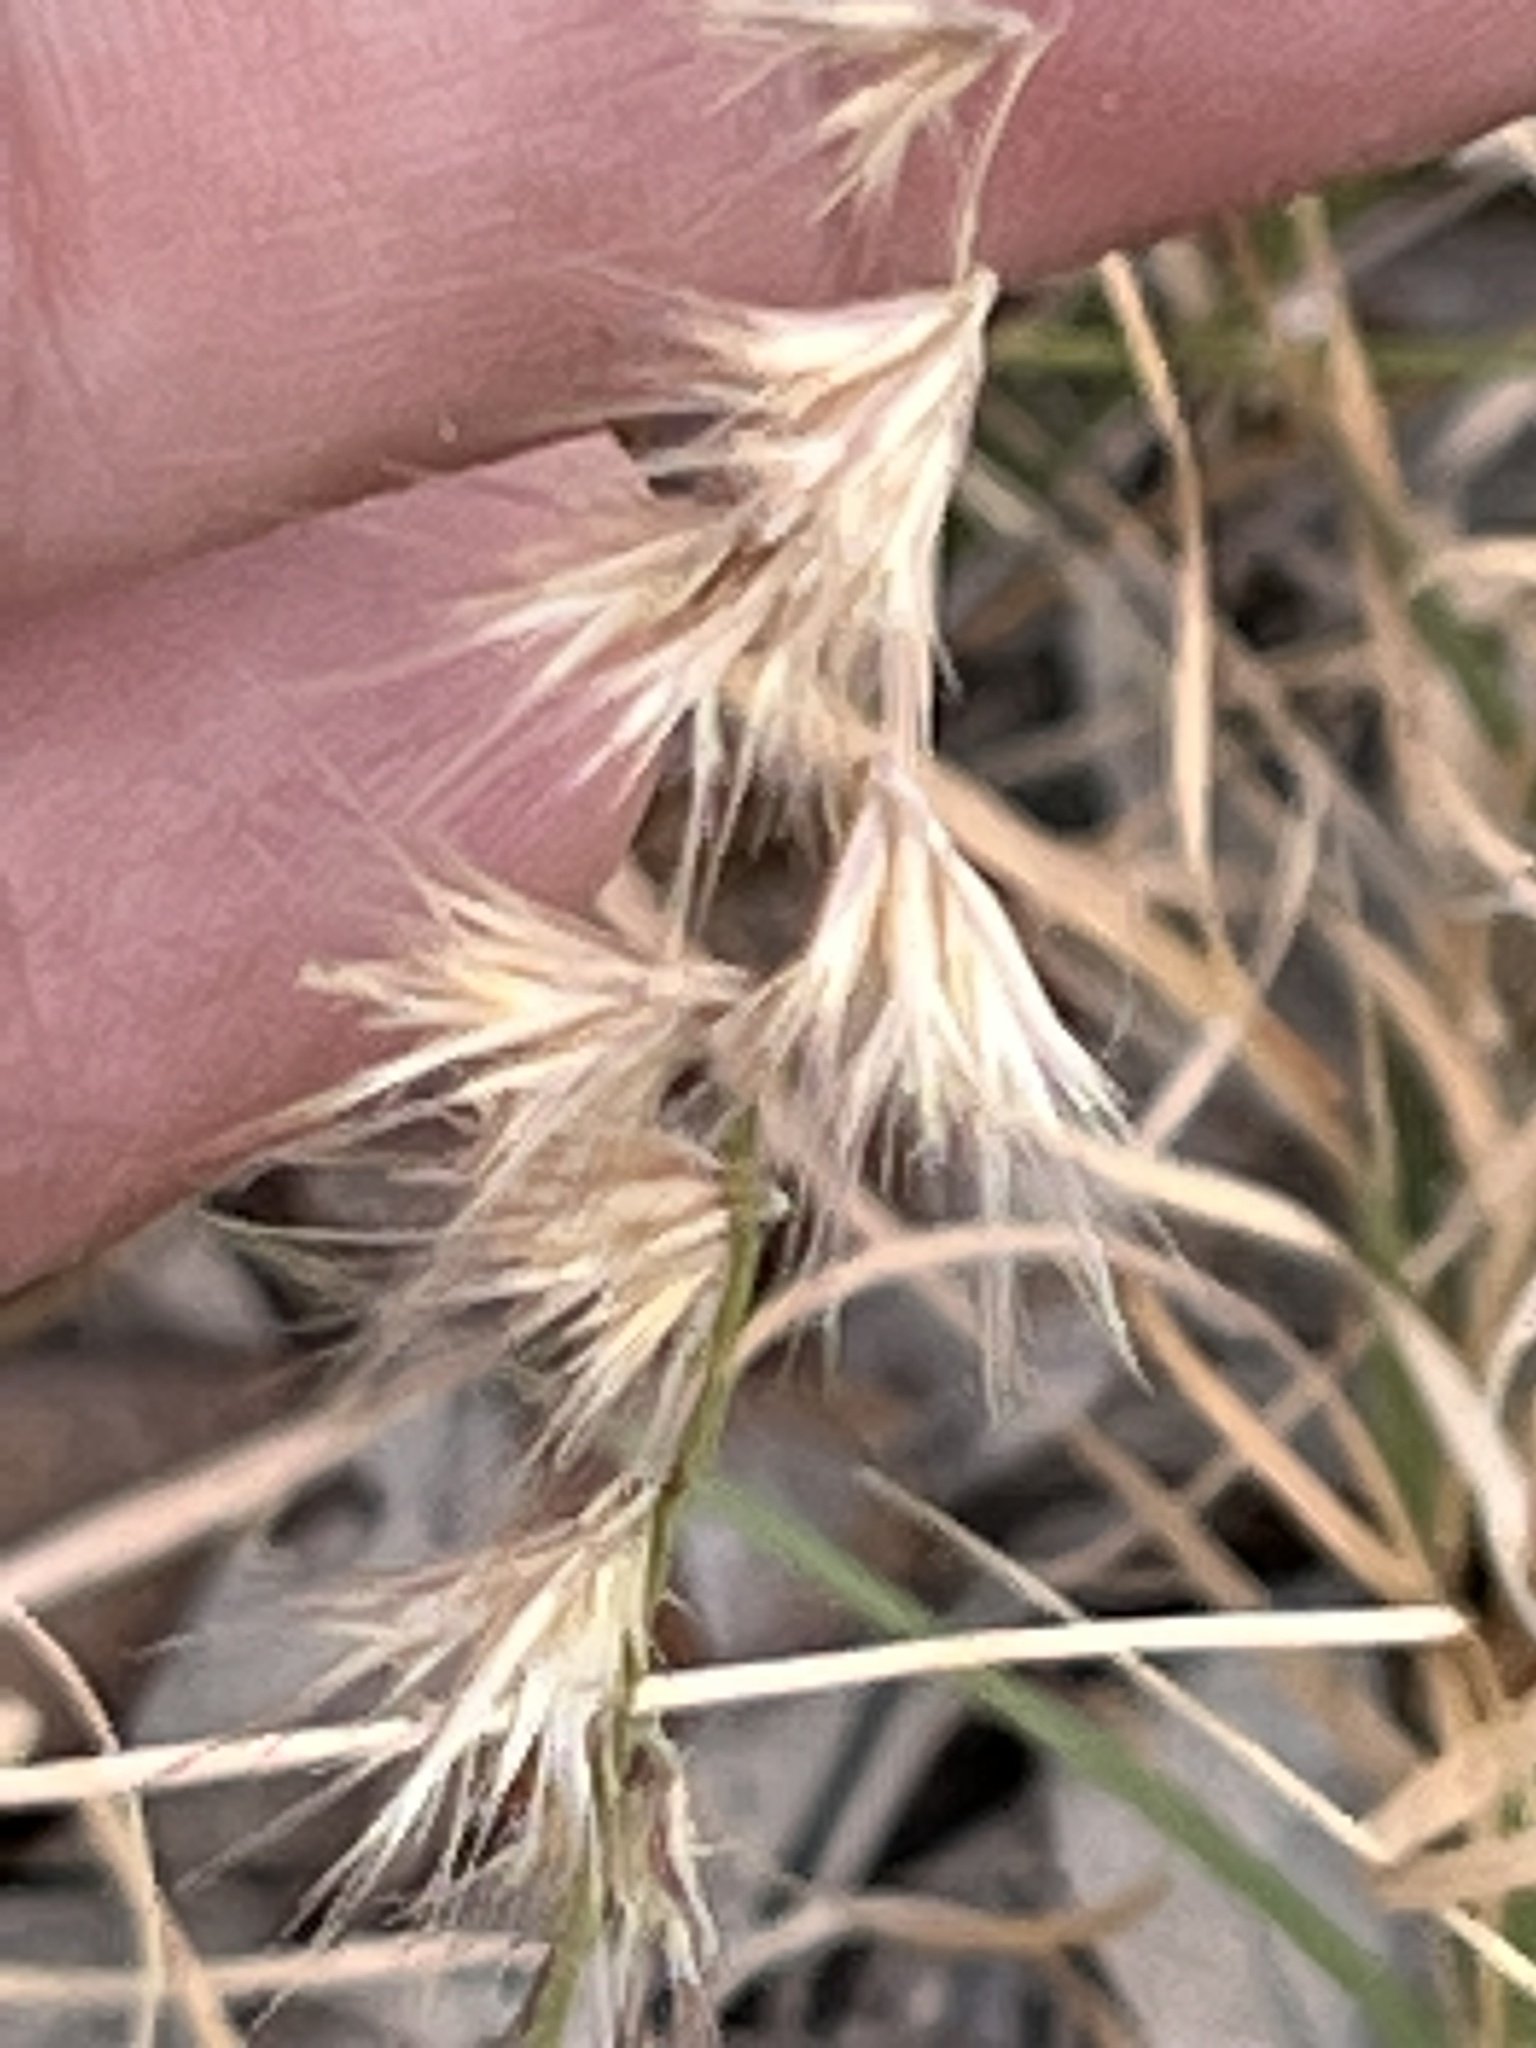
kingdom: Plantae
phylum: Tracheophyta
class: Liliopsida
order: Poales
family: Poaceae
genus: Bouteloua
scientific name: Bouteloua rigidiseta
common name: Texas grama
